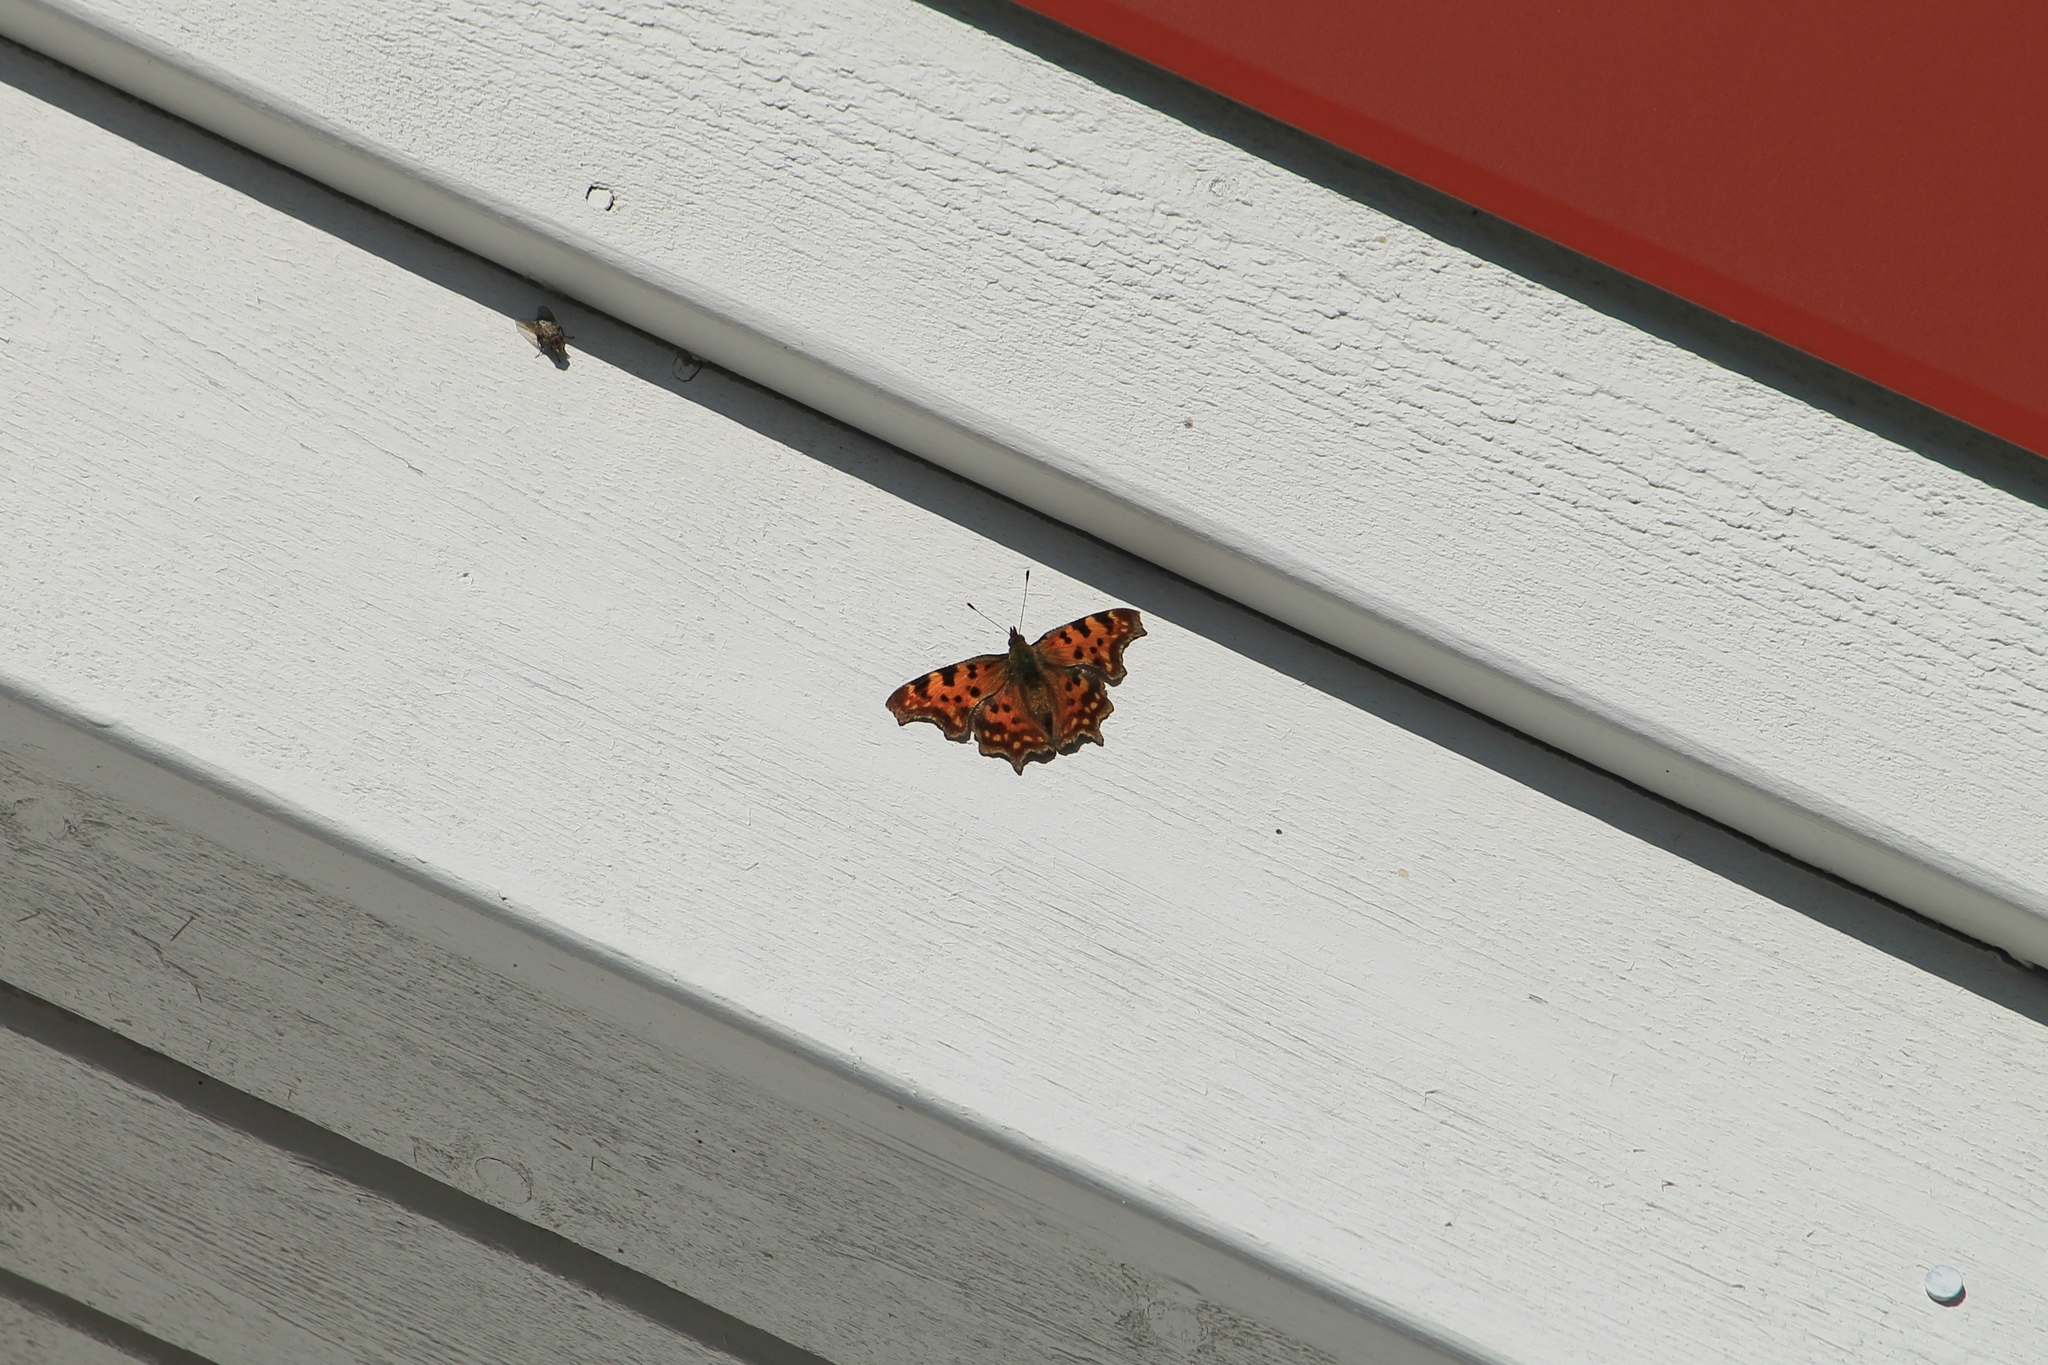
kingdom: Animalia
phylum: Arthropoda
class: Insecta
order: Lepidoptera
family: Nymphalidae
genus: Polygonia
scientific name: Polygonia c-album
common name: Comma
